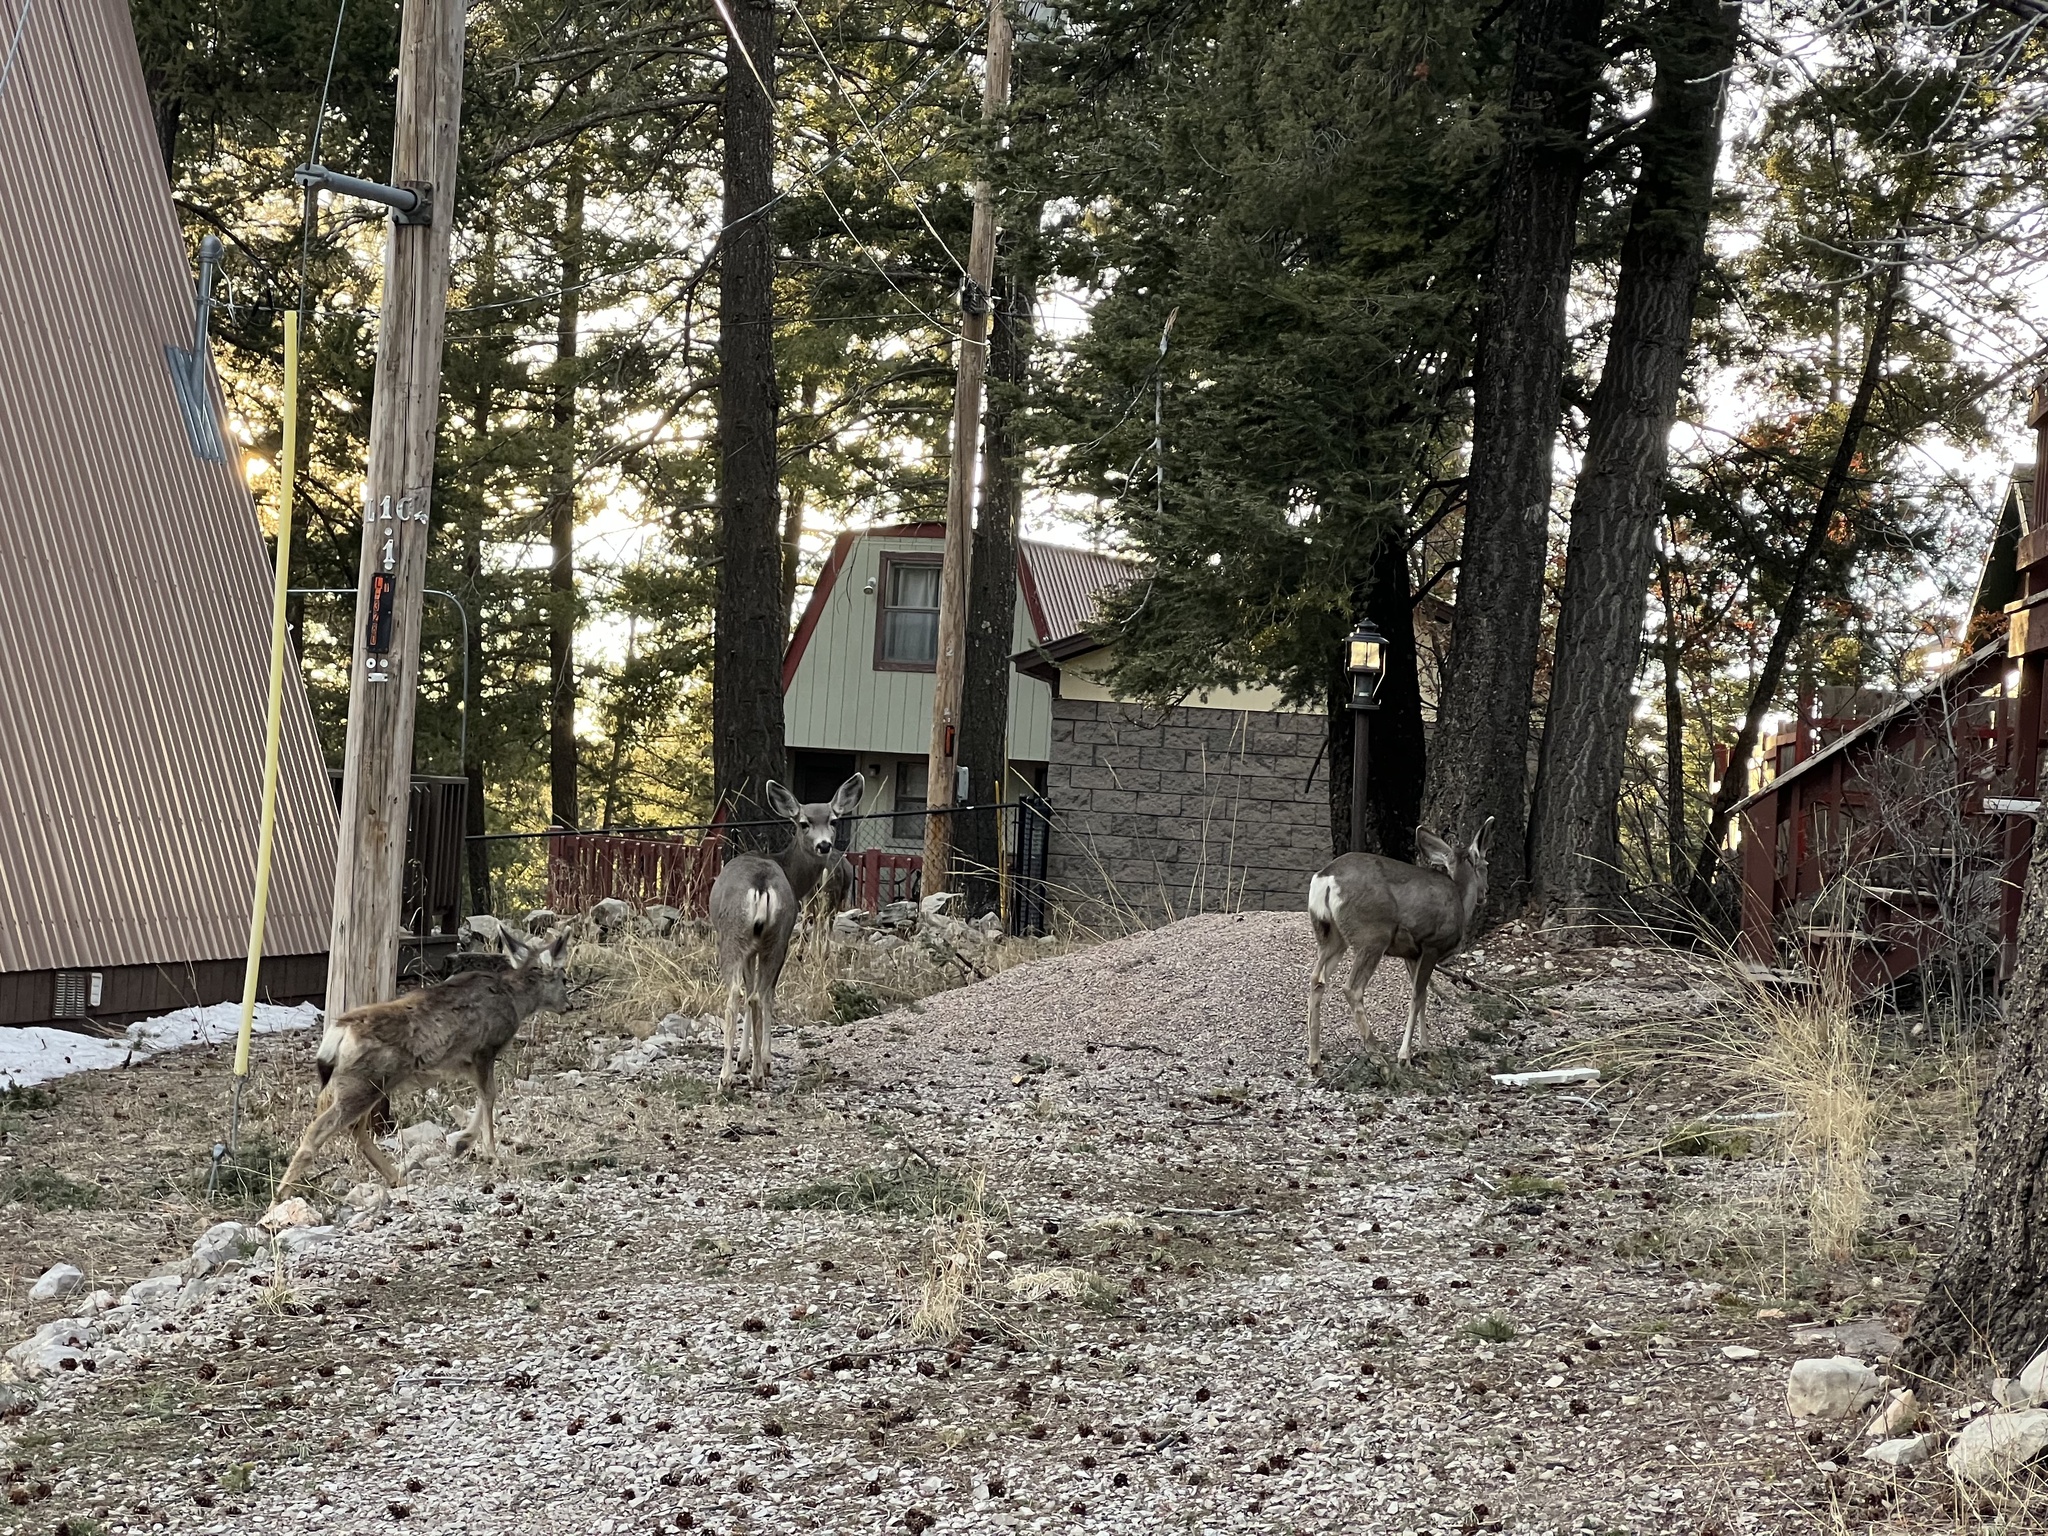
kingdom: Animalia
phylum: Chordata
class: Mammalia
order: Artiodactyla
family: Cervidae
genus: Odocoileus
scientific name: Odocoileus hemionus
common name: Mule deer
